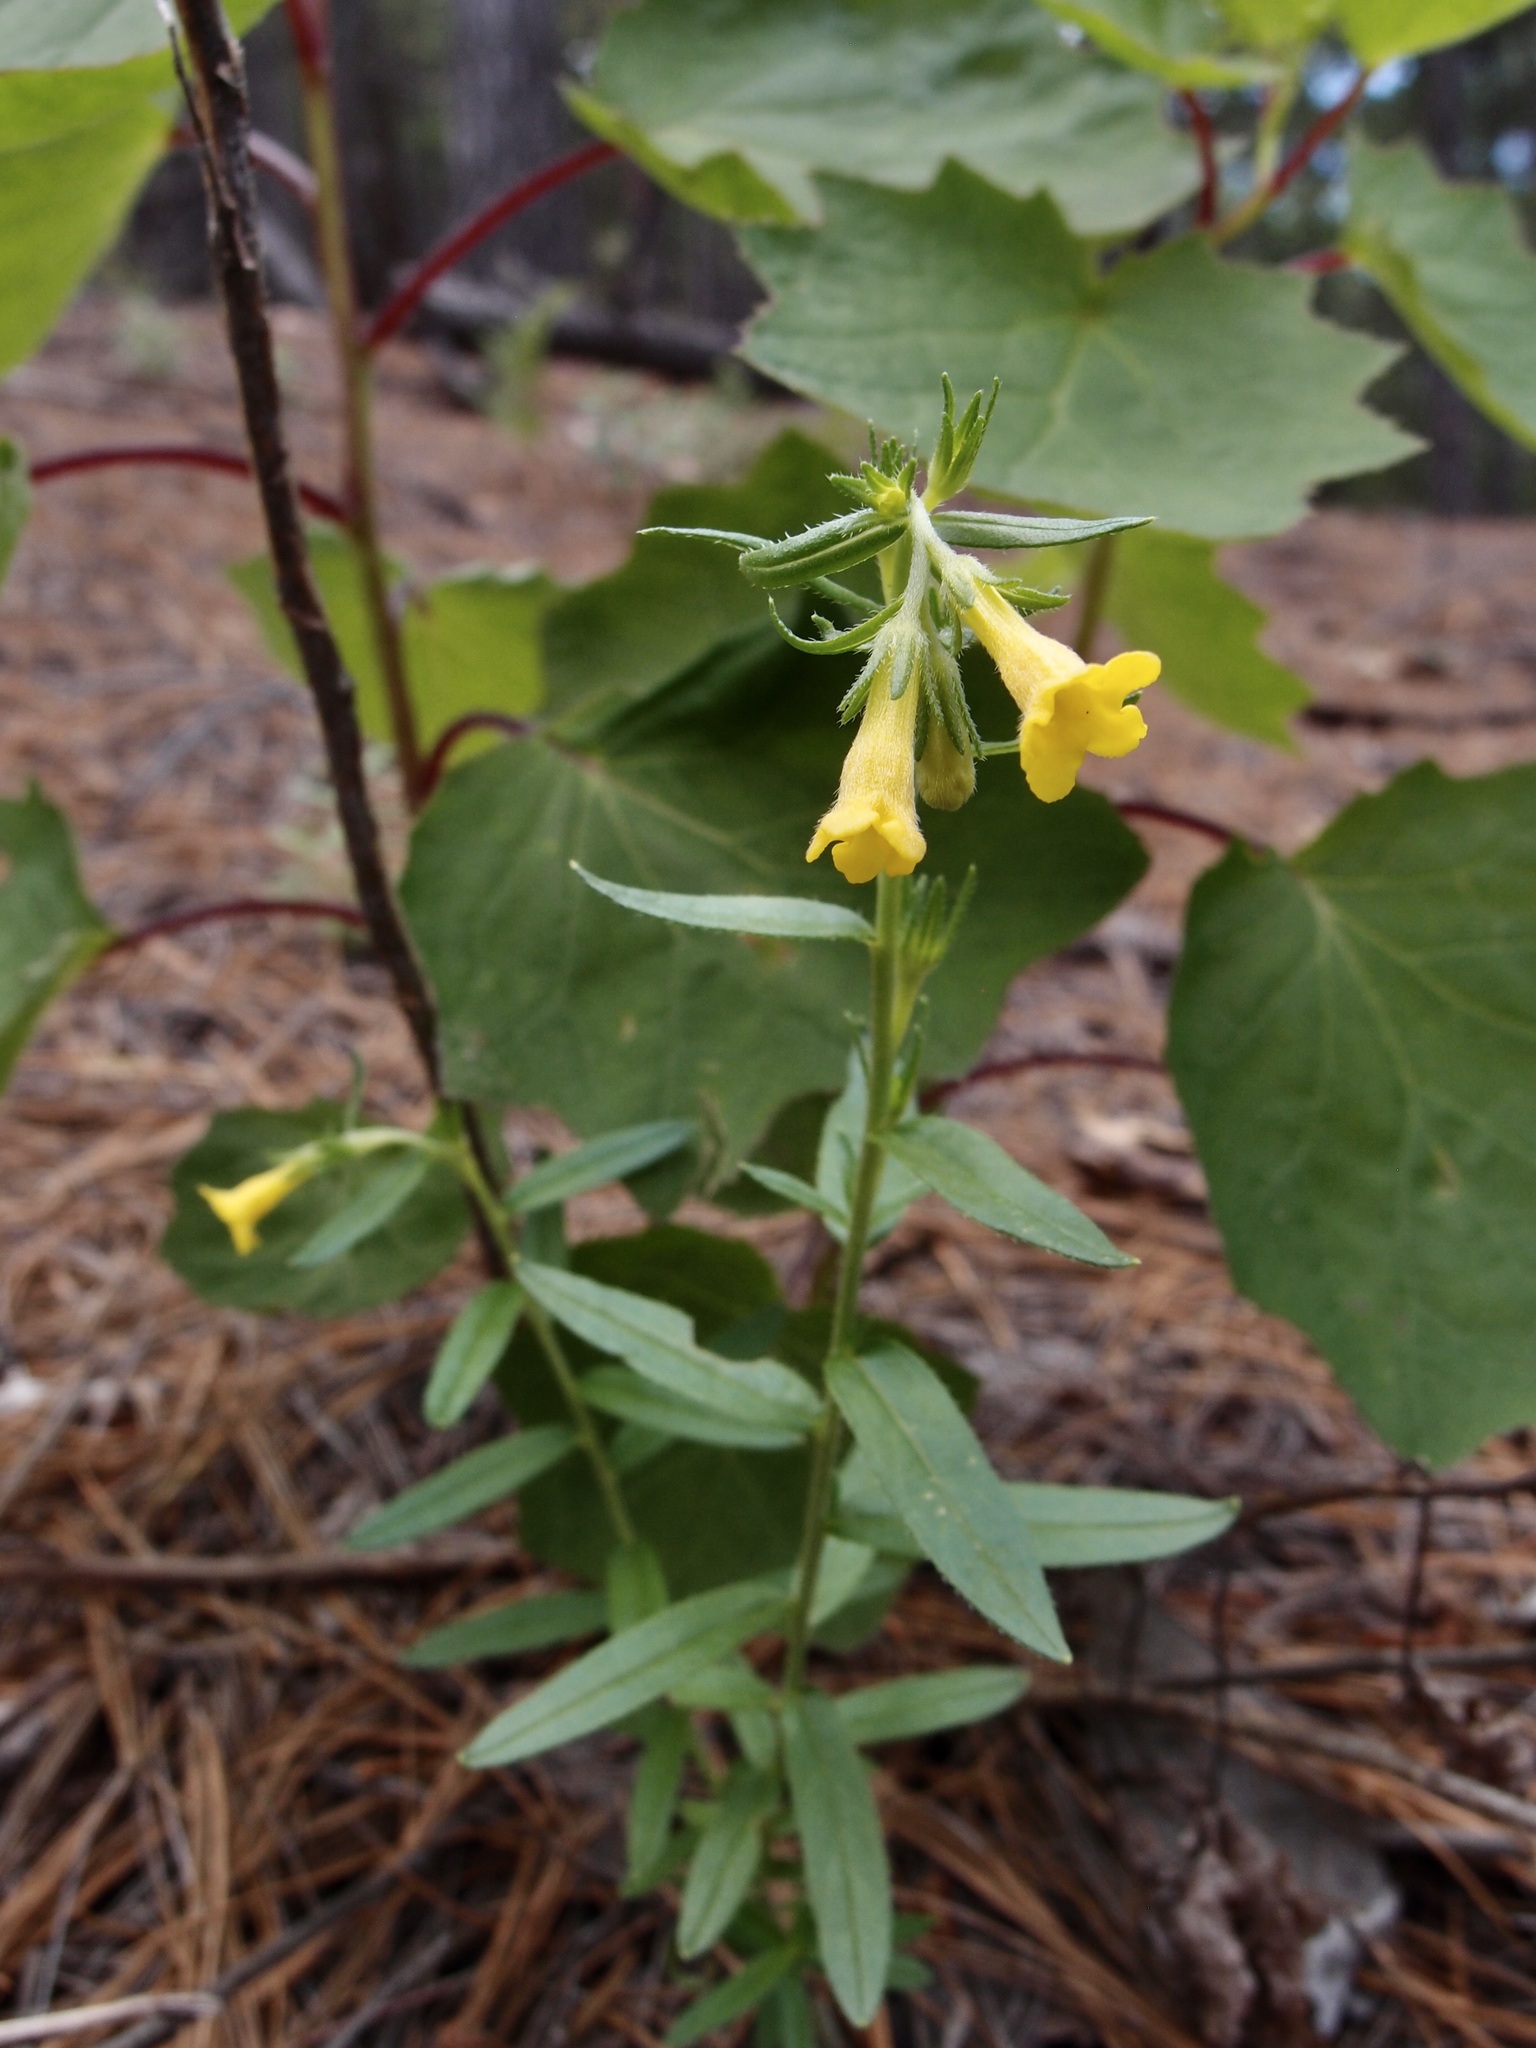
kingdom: Plantae
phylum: Tracheophyta
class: Magnoliopsida
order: Boraginales
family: Boraginaceae
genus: Lithospermum
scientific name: Lithospermum multiflorum
